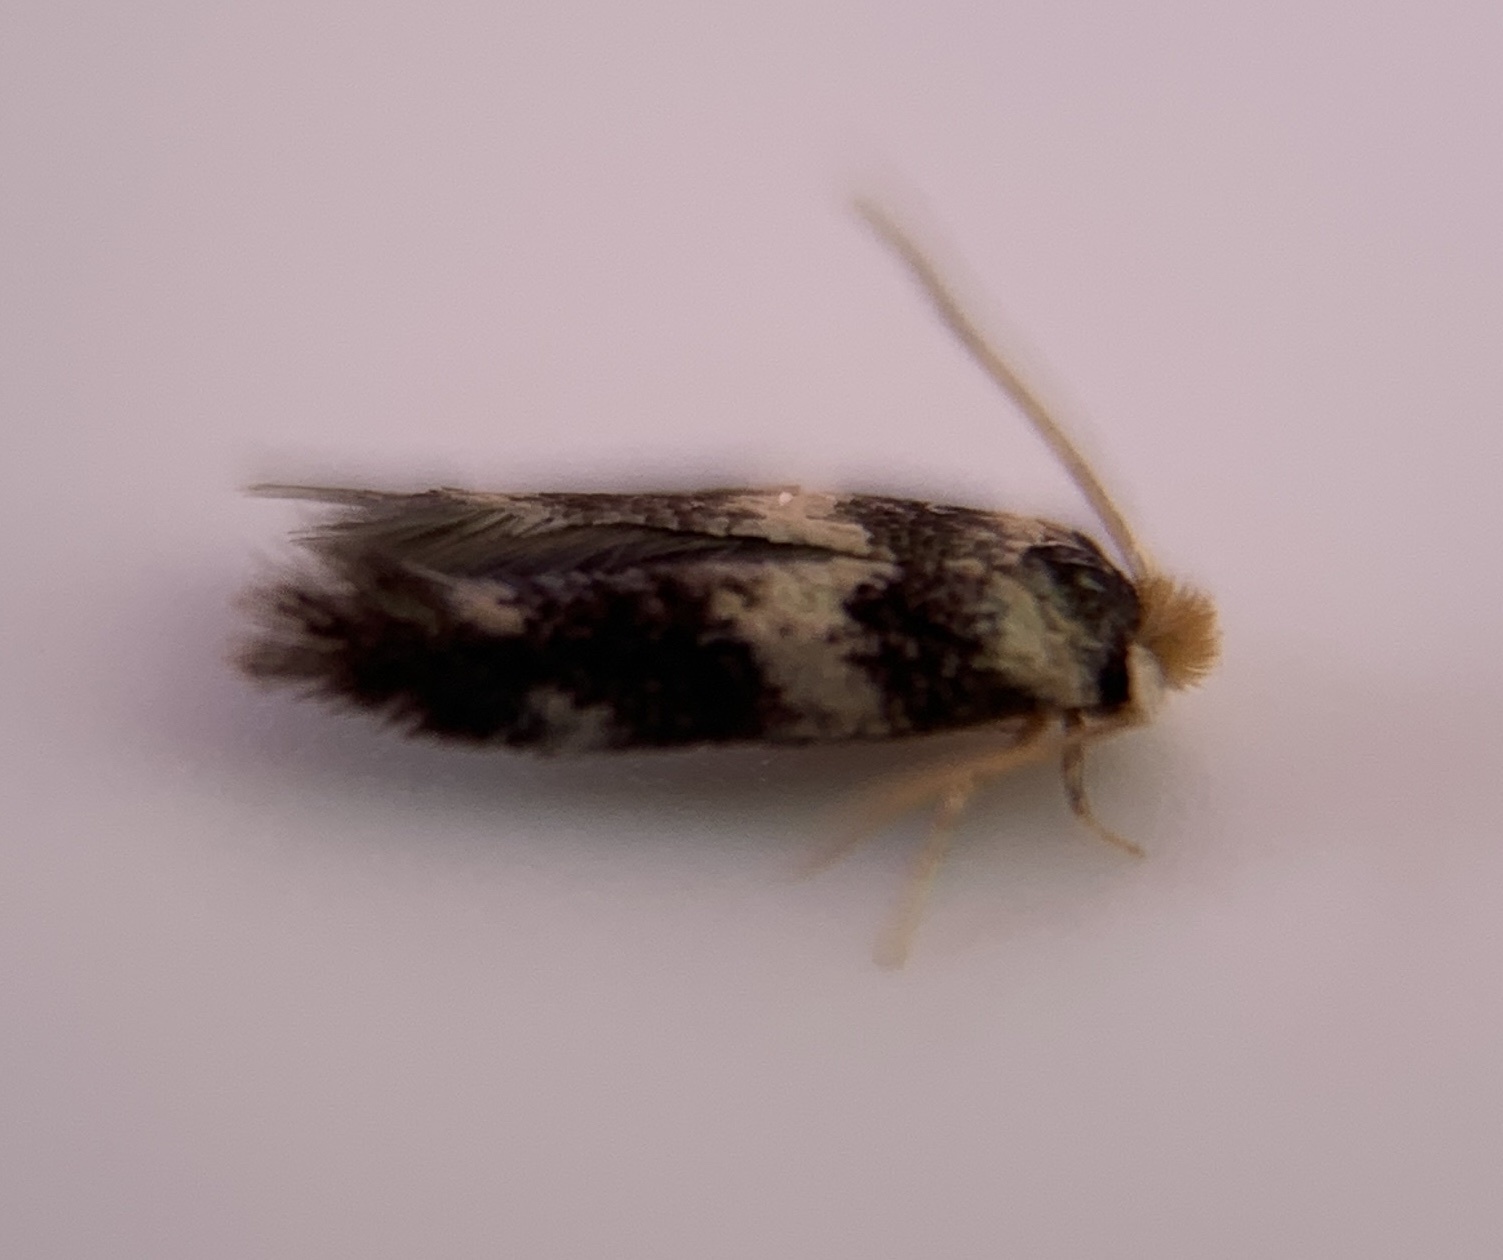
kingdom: Animalia
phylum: Arthropoda
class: Insecta
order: Lepidoptera
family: Nepticulidae
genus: Etainia
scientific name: Etainia sericopeza
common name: Leafminer
